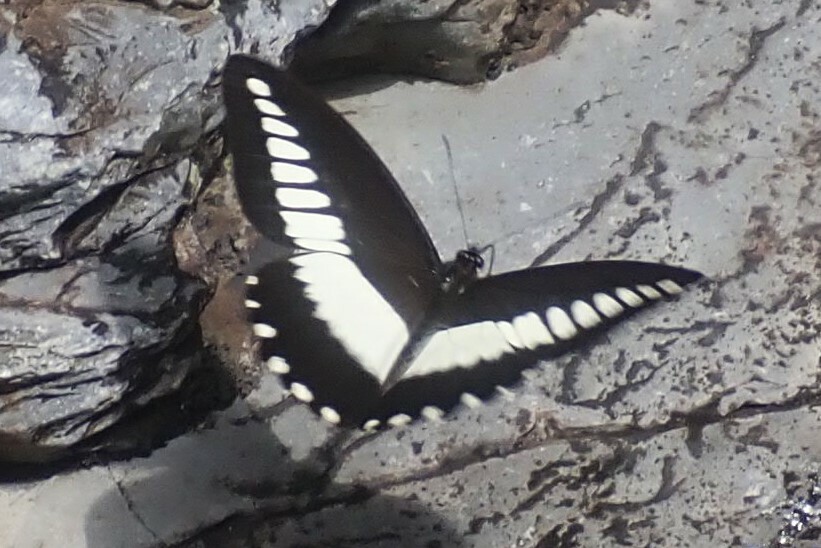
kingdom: Animalia
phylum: Arthropoda
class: Insecta
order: Lepidoptera
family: Papilionidae
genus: Papilio
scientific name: Papilio echerioides
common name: White-banded swallowtail
